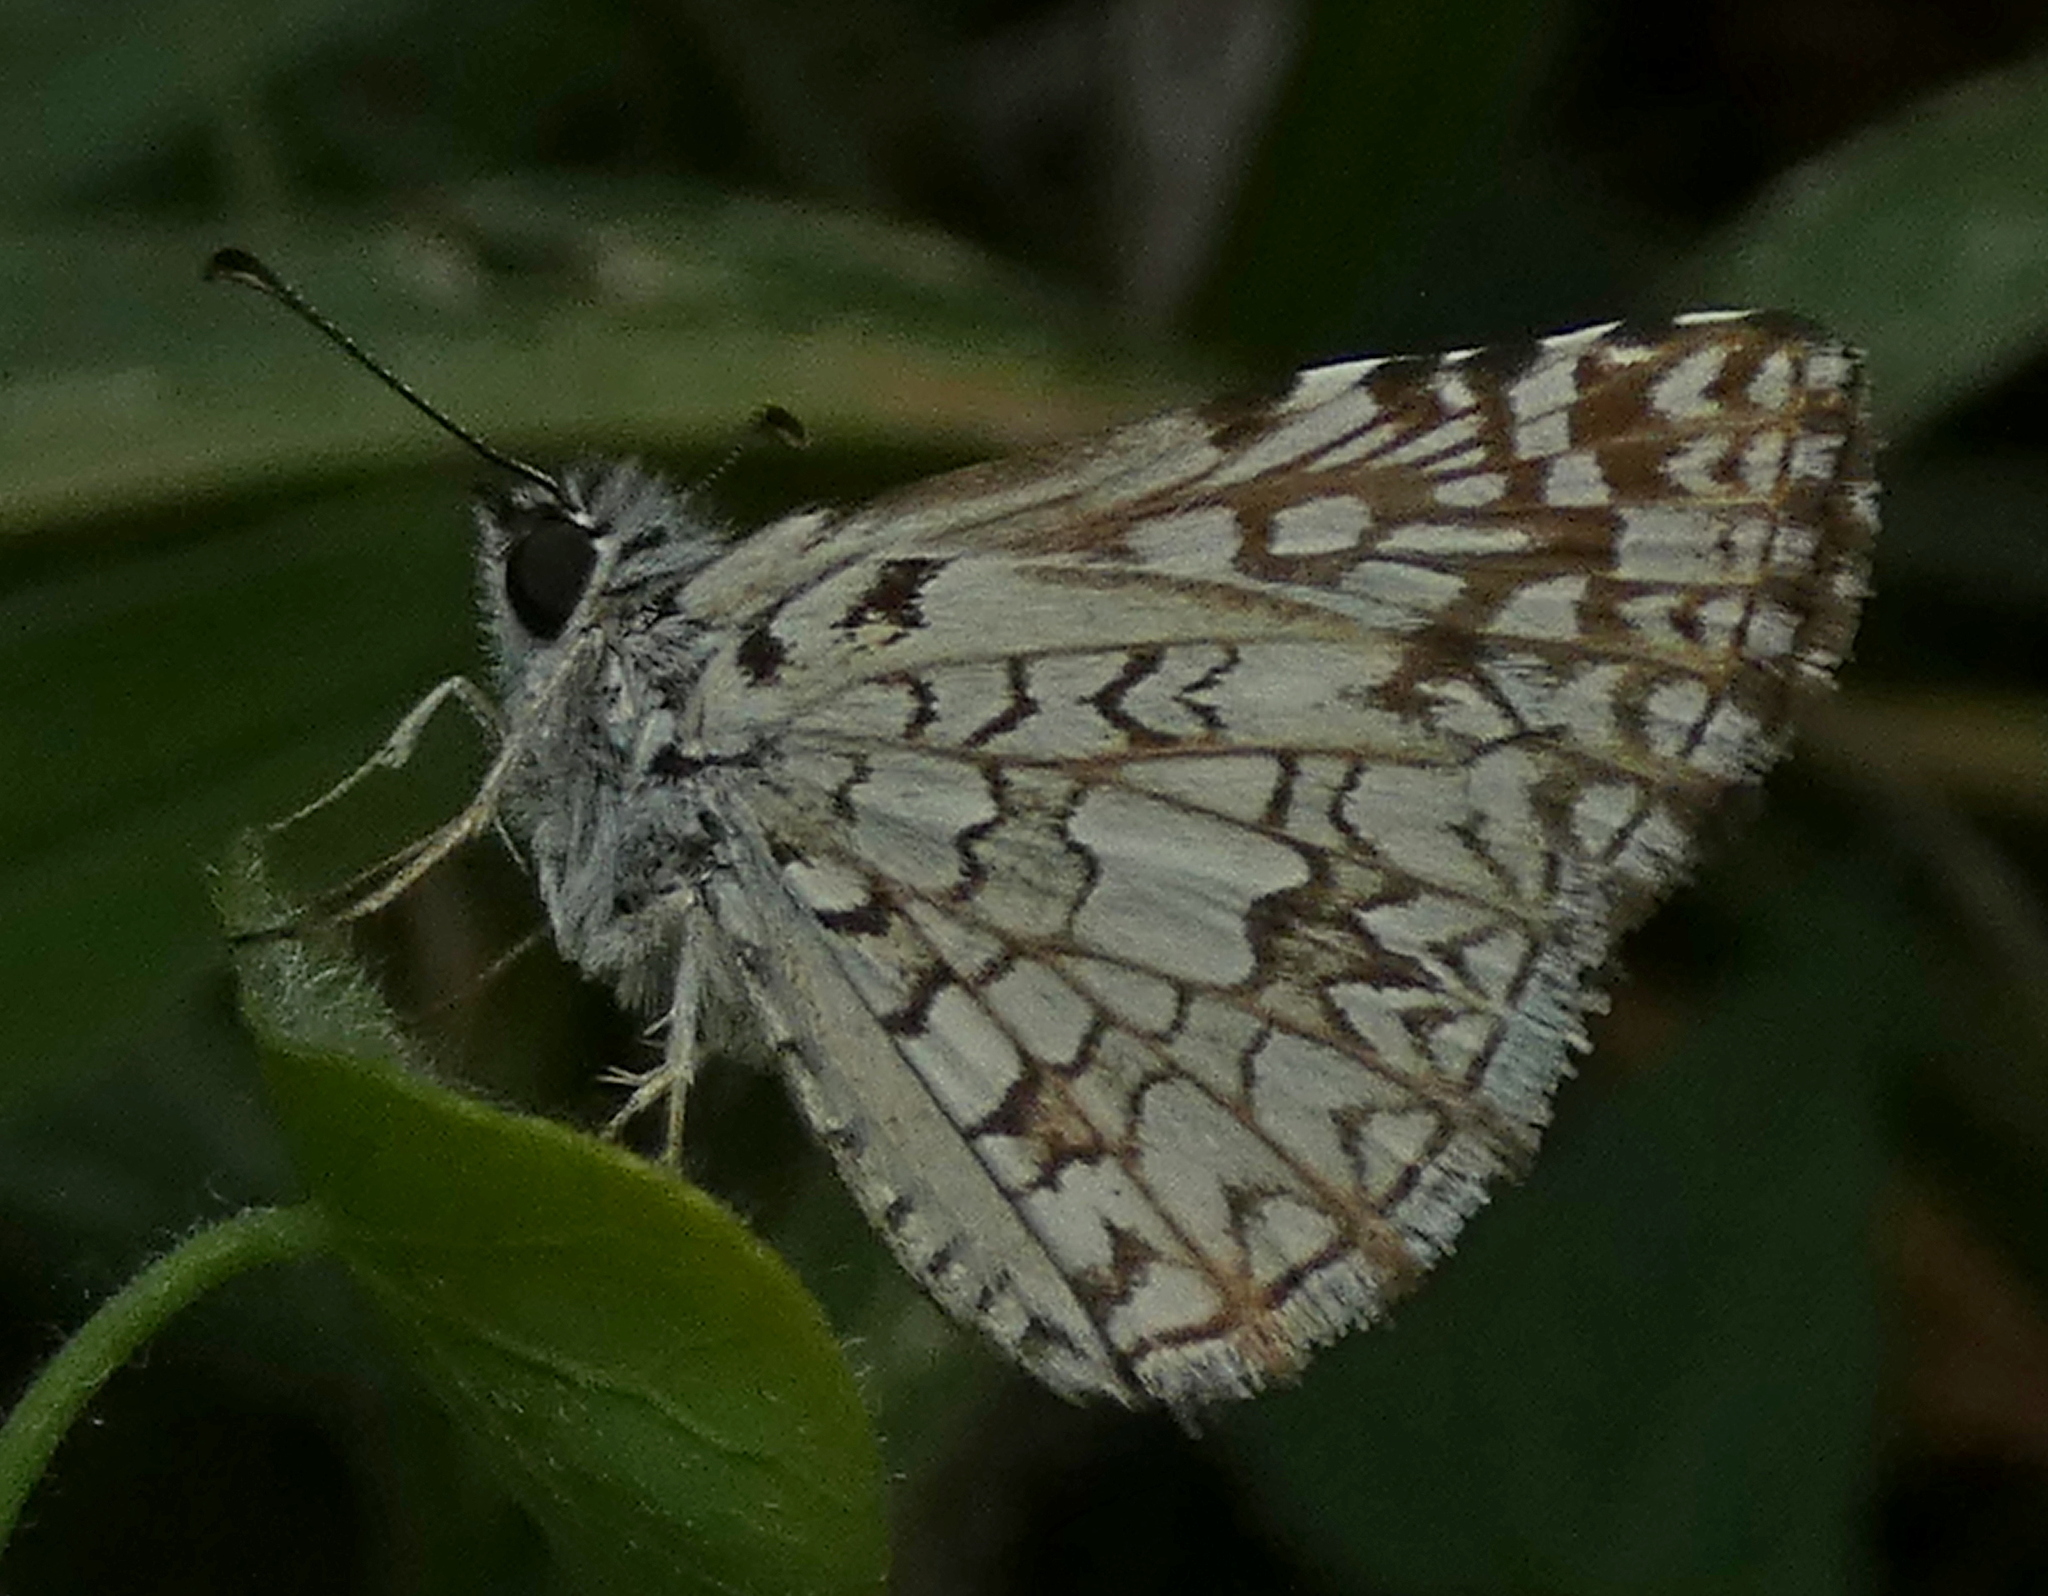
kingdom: Animalia
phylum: Arthropoda
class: Insecta
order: Lepidoptera
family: Hesperiidae
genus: Pyrgus
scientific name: Pyrgus oileus
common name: Tropical checkered-skipper
